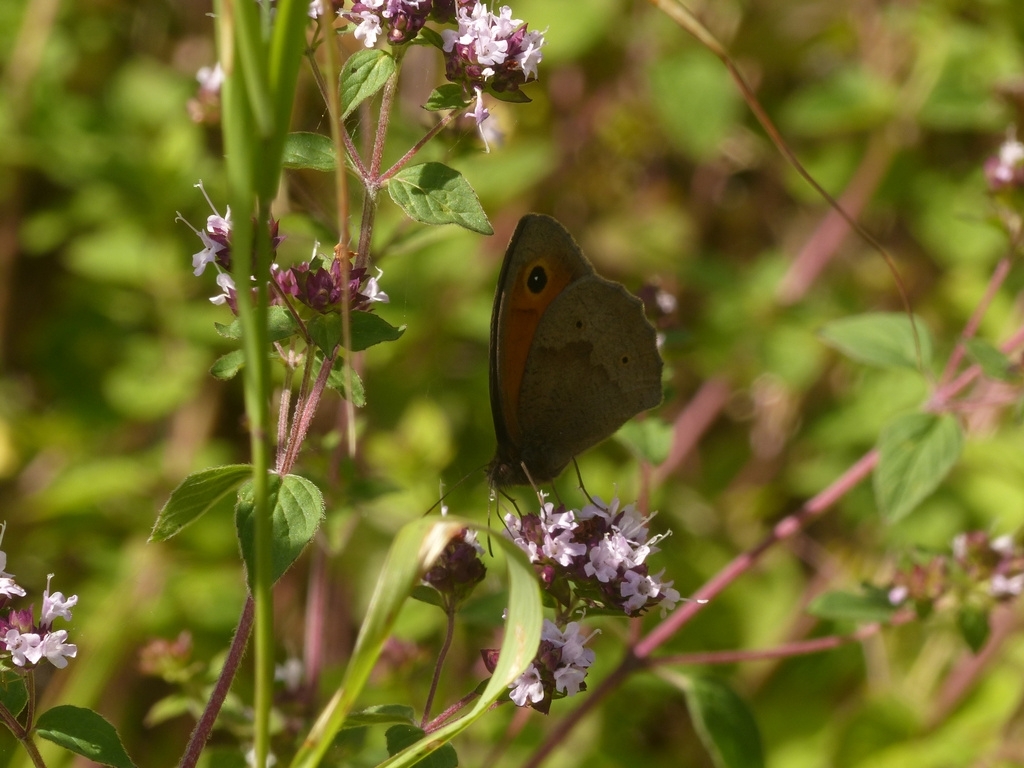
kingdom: Animalia
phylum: Arthropoda
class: Insecta
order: Lepidoptera
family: Nymphalidae
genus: Maniola
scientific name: Maniola jurtina
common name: Meadow brown
